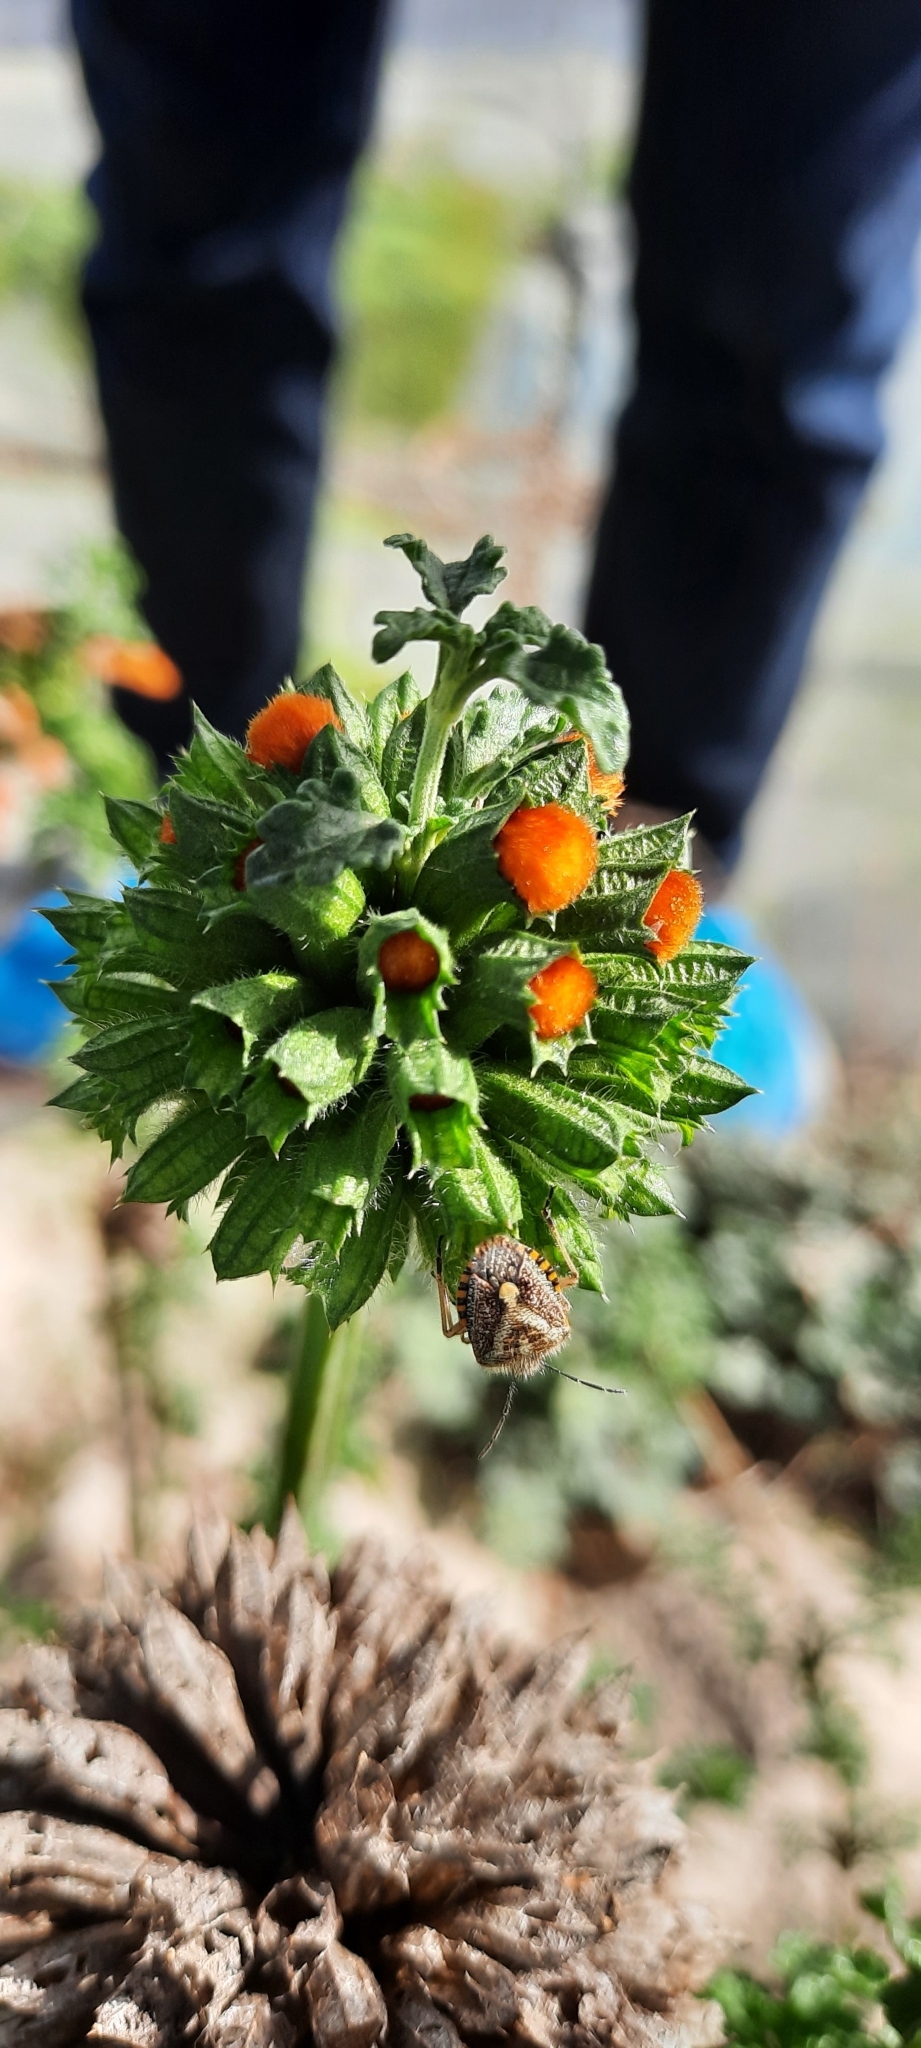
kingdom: Animalia
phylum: Arthropoda
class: Insecta
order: Hemiptera
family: Pentatomidae
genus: Agonoscelis
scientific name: Agonoscelis puberula
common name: African cluster bug
